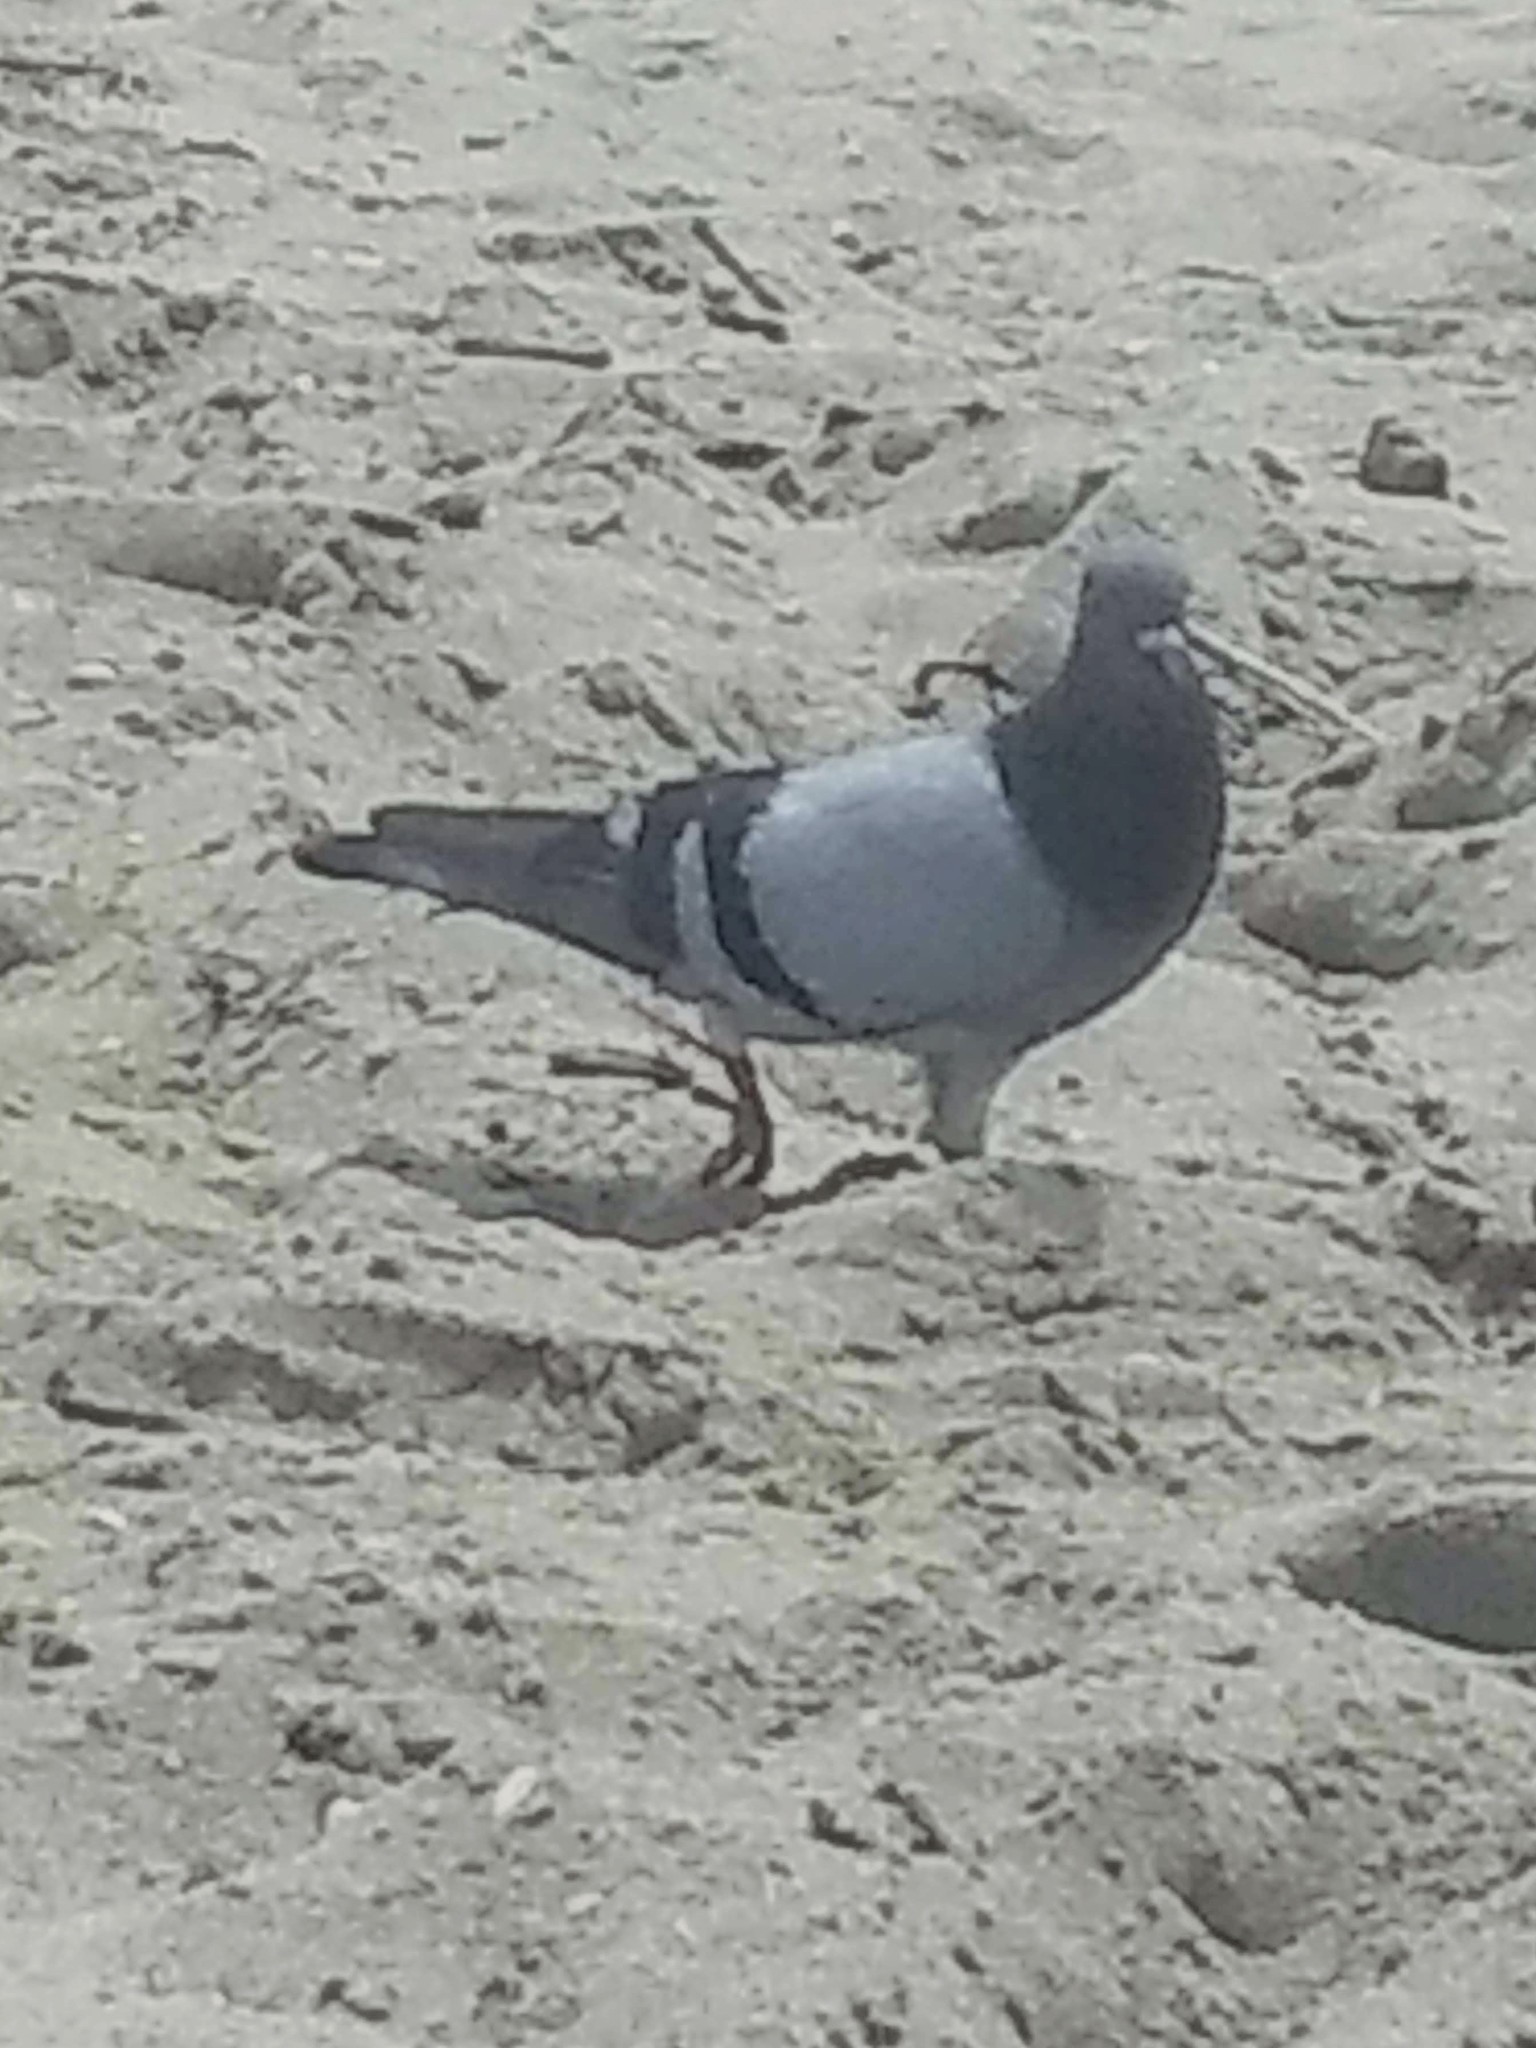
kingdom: Animalia
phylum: Chordata
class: Aves
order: Columbiformes
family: Columbidae
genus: Columba
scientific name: Columba livia
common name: Rock pigeon
